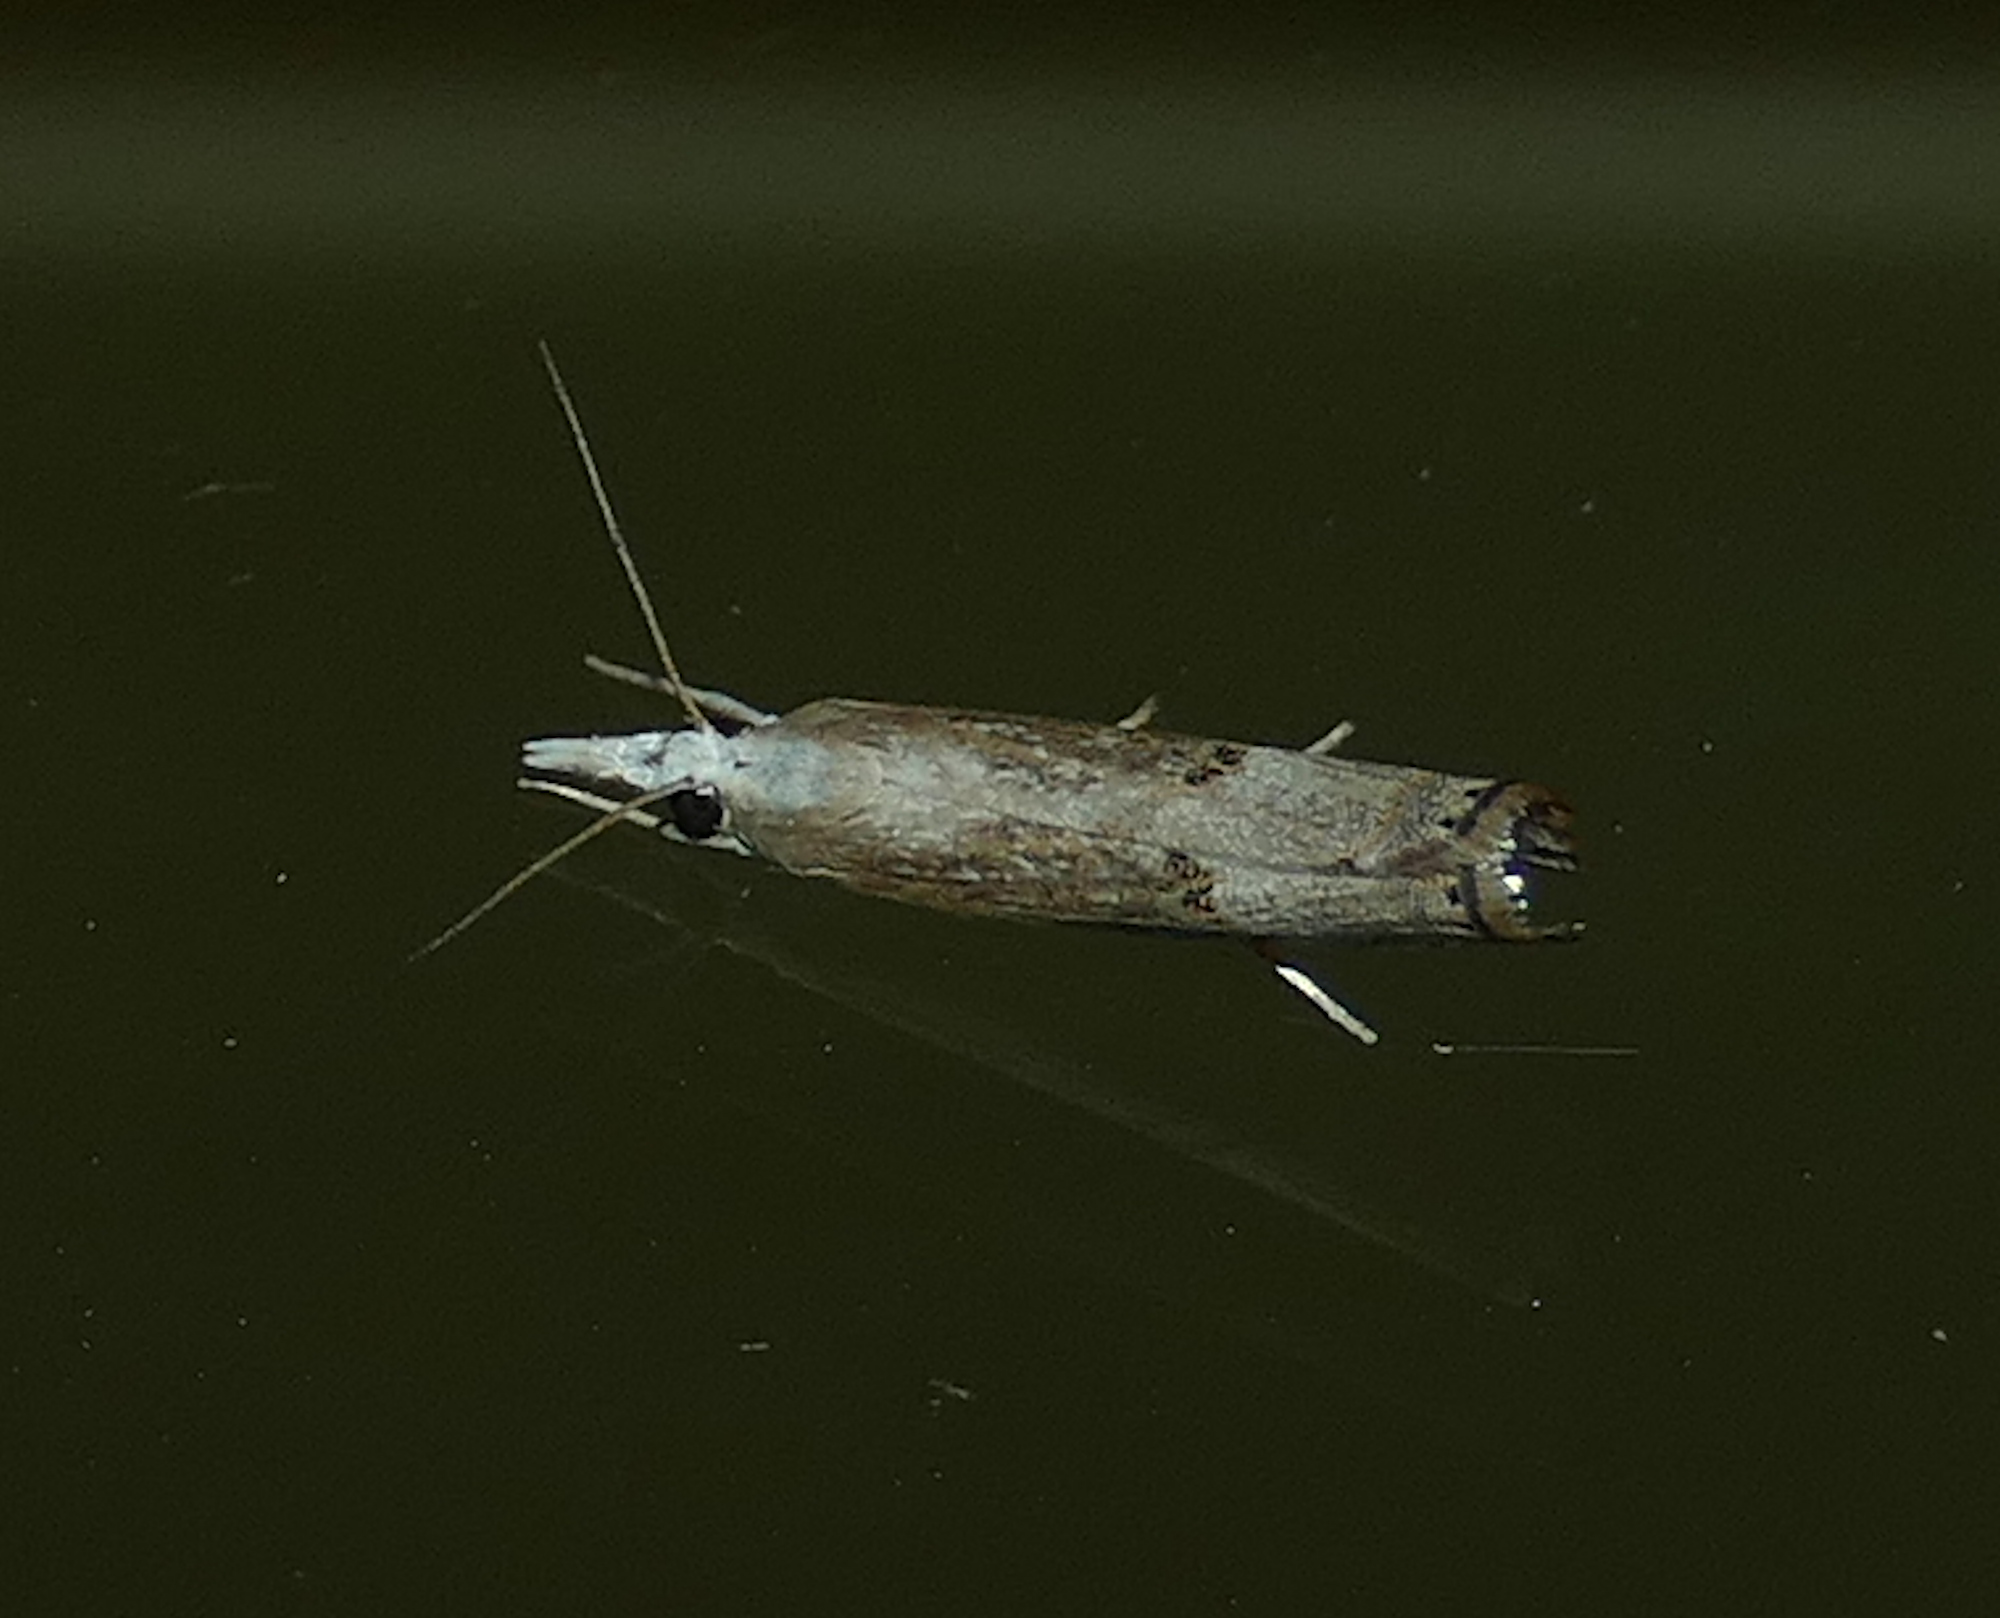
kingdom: Animalia
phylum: Arthropoda
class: Insecta
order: Lepidoptera
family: Crambidae
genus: Parapediasia
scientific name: Parapediasia teterellus
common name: Bluegrass webworm moth
